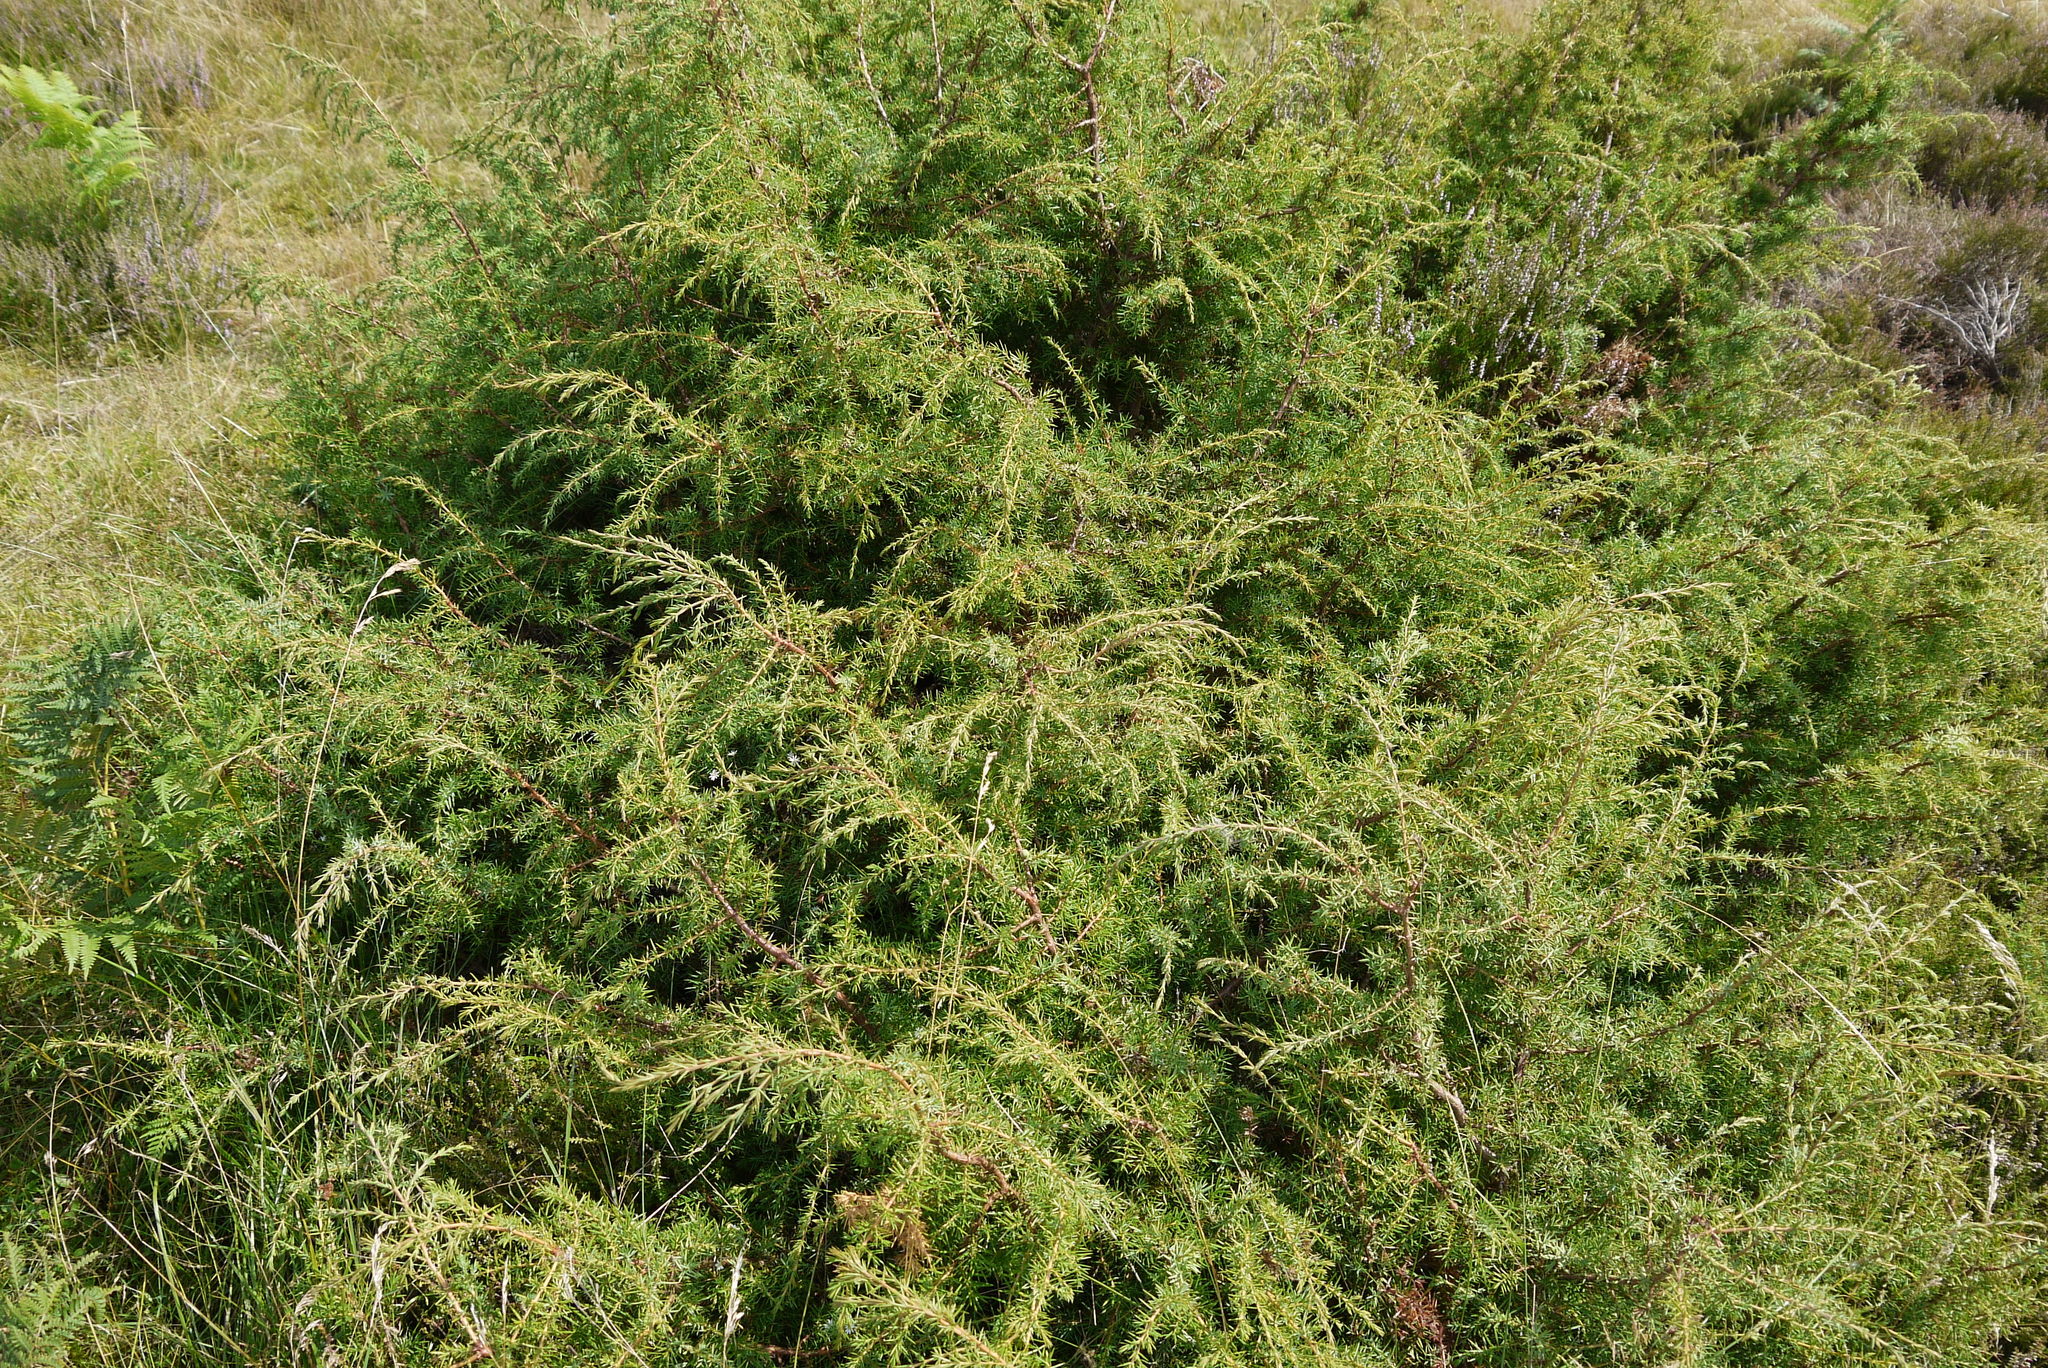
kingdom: Plantae
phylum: Tracheophyta
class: Pinopsida
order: Pinales
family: Cupressaceae
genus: Juniperus
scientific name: Juniperus communis
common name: Common juniper
